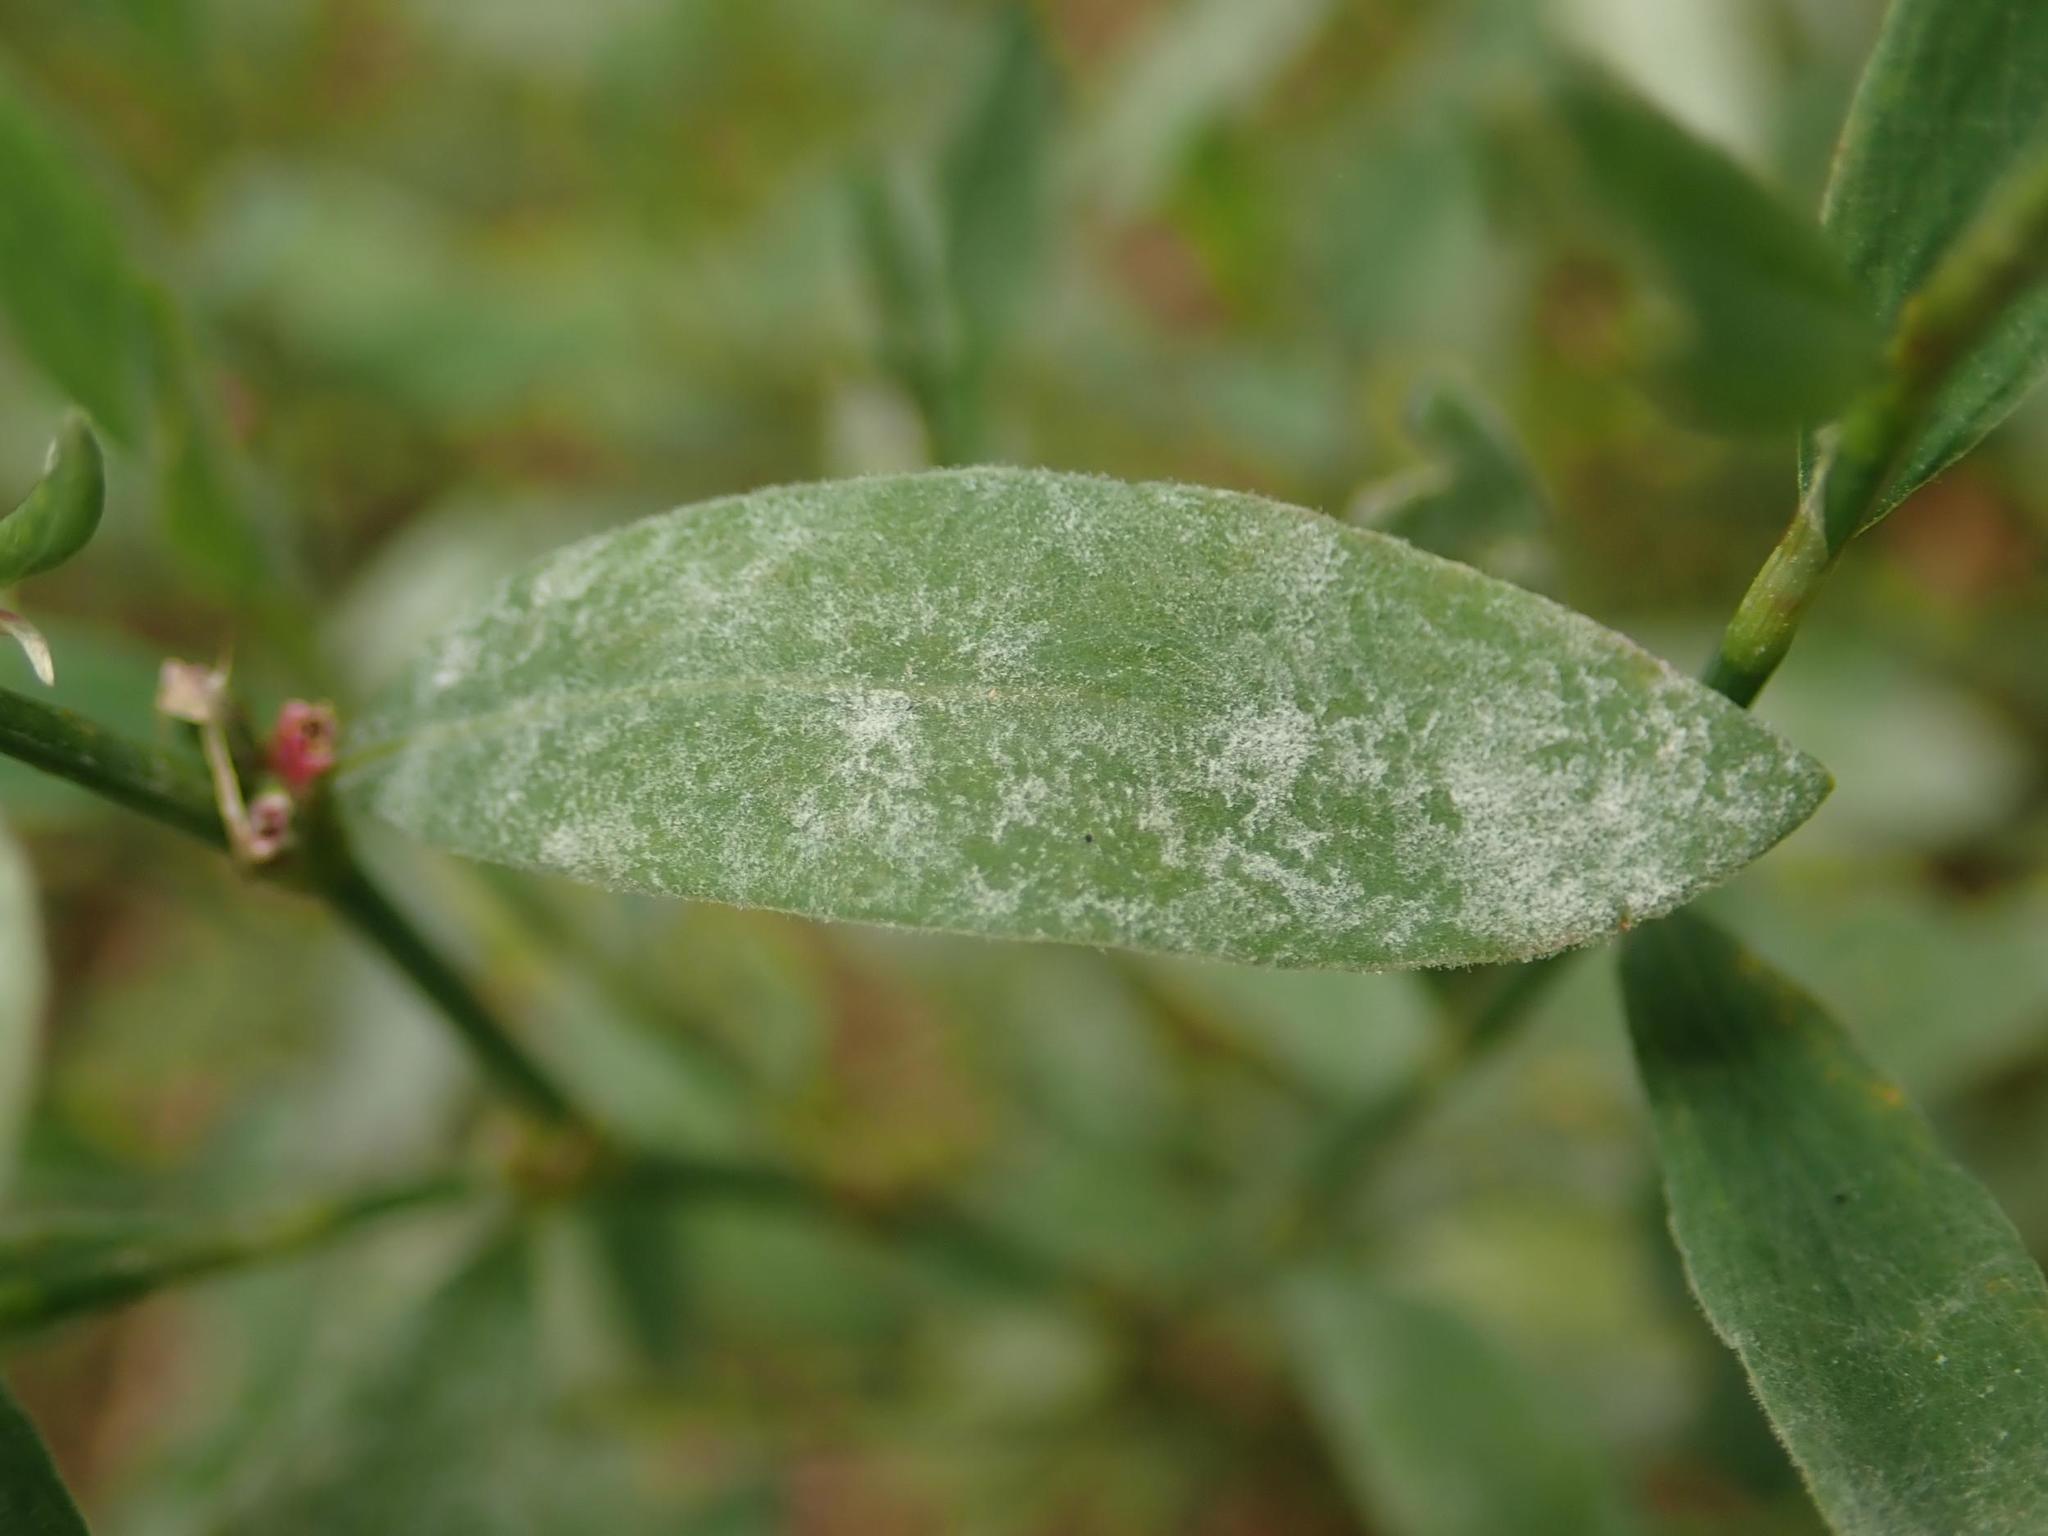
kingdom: Fungi
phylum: Ascomycota
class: Leotiomycetes
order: Helotiales
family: Erysiphaceae
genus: Erysiphe
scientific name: Erysiphe polygoni
